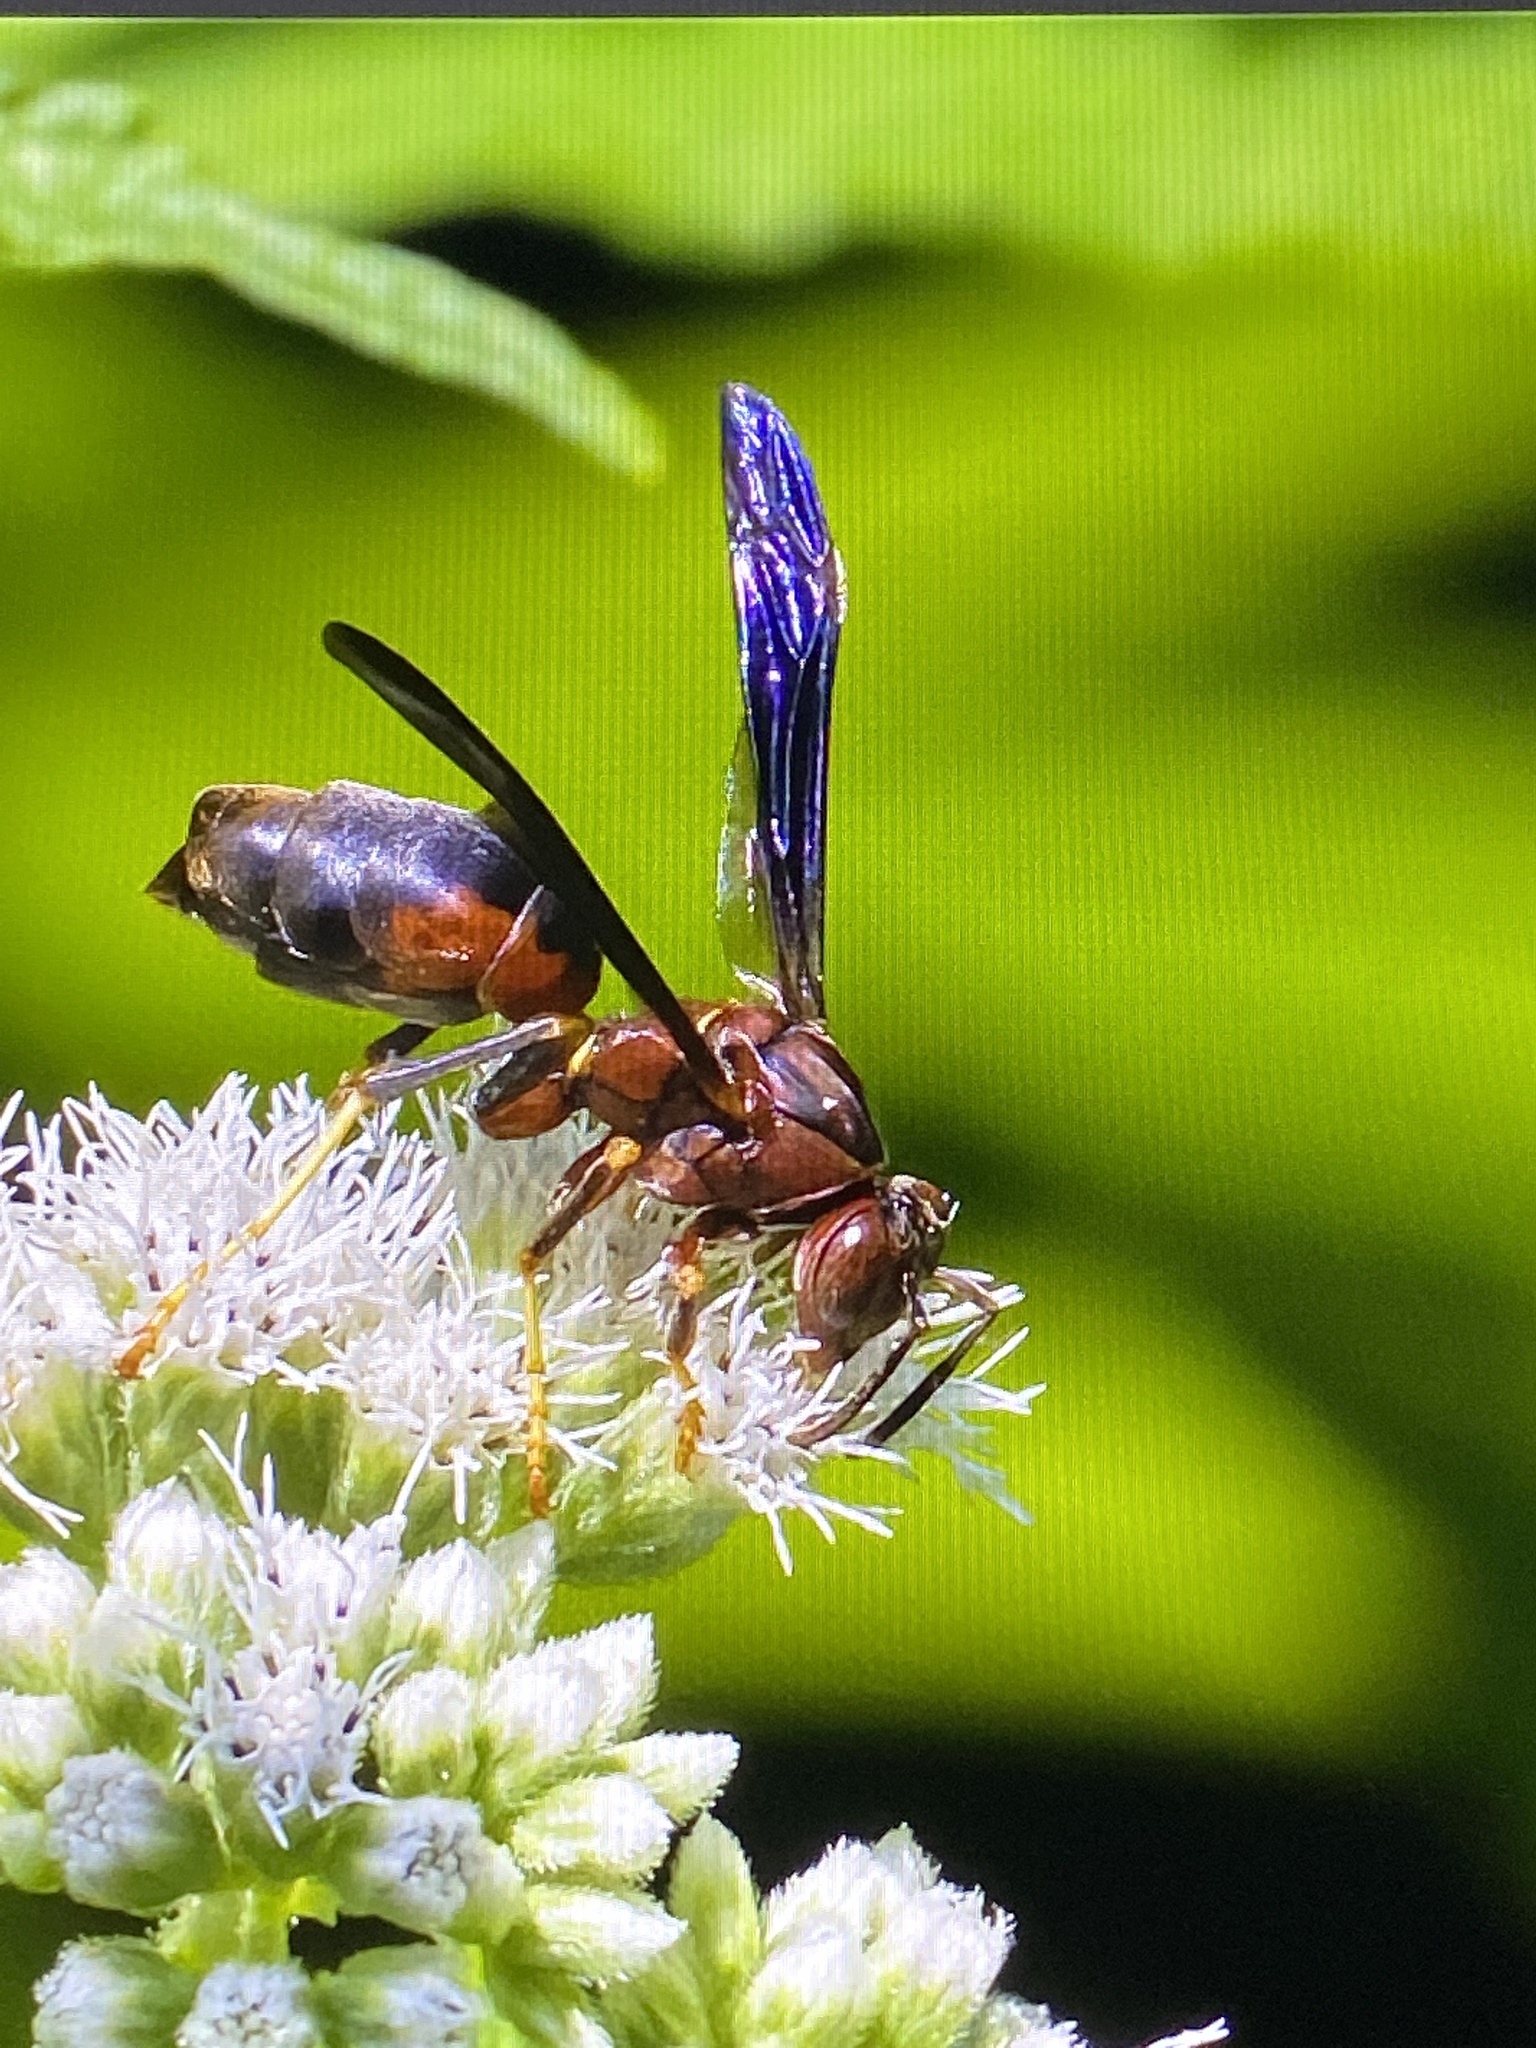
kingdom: Animalia
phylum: Arthropoda
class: Insecta
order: Hymenoptera
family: Eumenidae
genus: Polistes
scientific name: Polistes metricus
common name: Metric paper wasp
